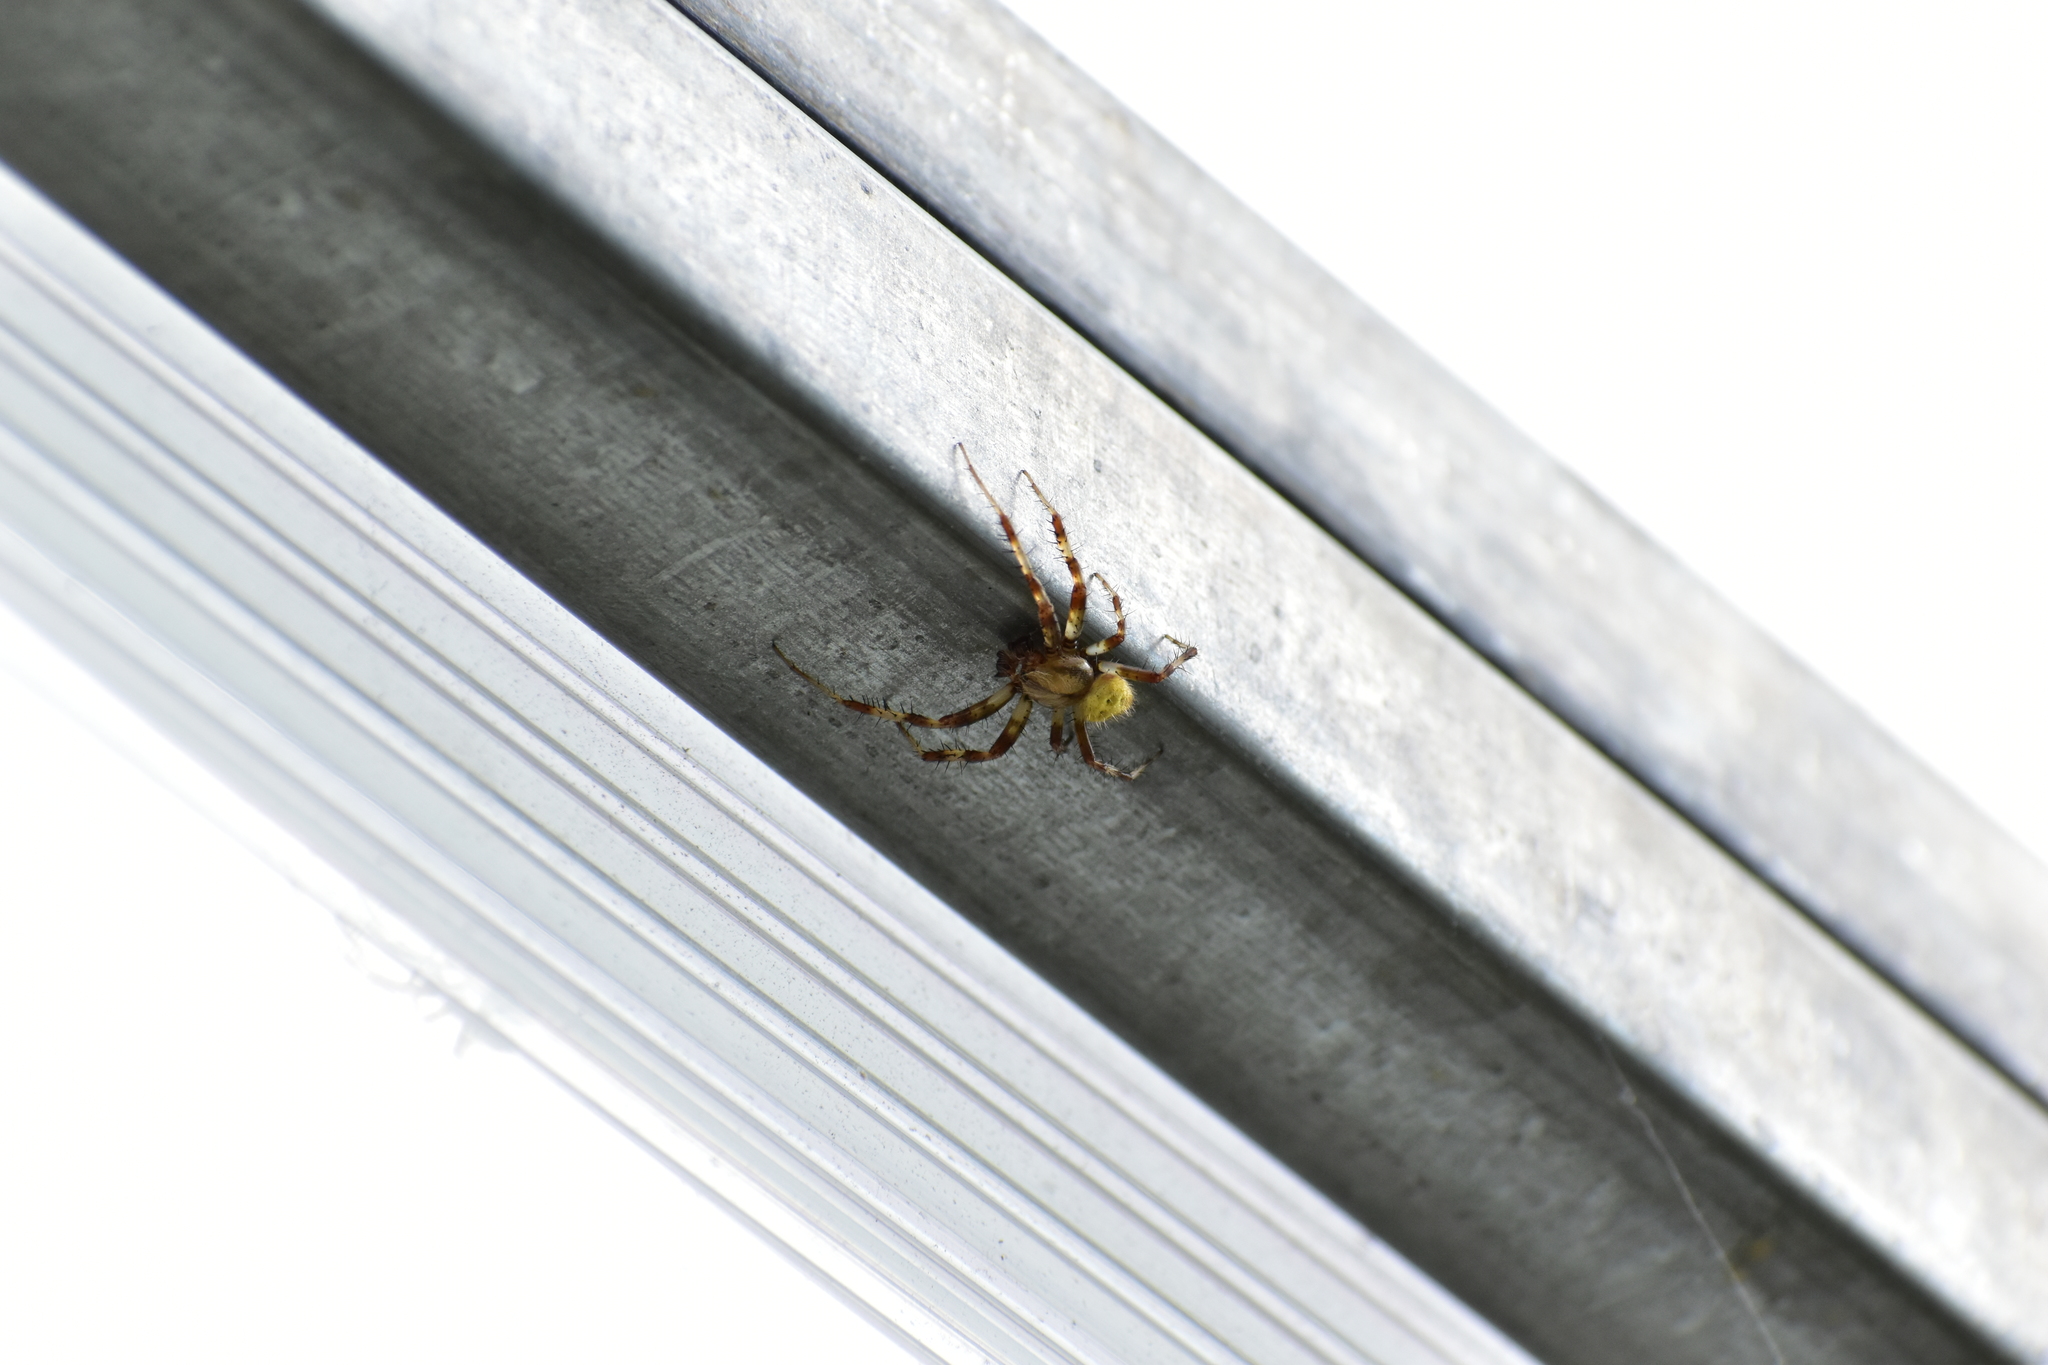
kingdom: Animalia
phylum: Arthropoda
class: Arachnida
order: Araneae
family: Araneidae
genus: Araneus
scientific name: Araneus quadratus
